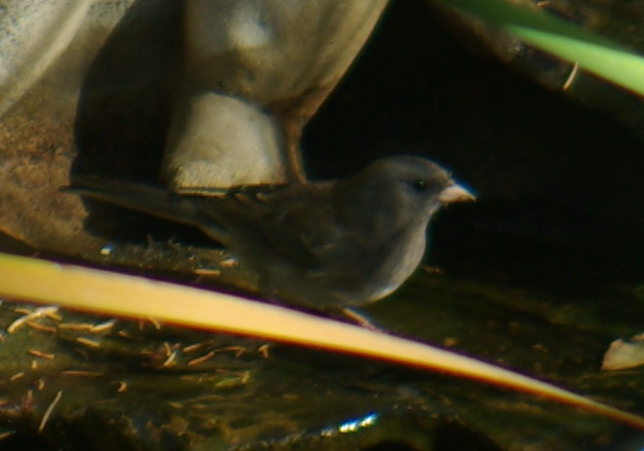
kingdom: Animalia
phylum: Chordata
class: Aves
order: Passeriformes
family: Passerellidae
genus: Junco
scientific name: Junco hyemalis
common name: Dark-eyed junco
